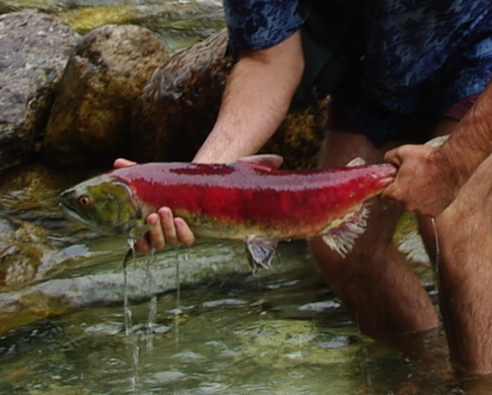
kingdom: Animalia
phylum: Chordata
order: Salmoniformes
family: Salmonidae
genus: Oncorhynchus
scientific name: Oncorhynchus nerka
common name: Sockeye salmon
